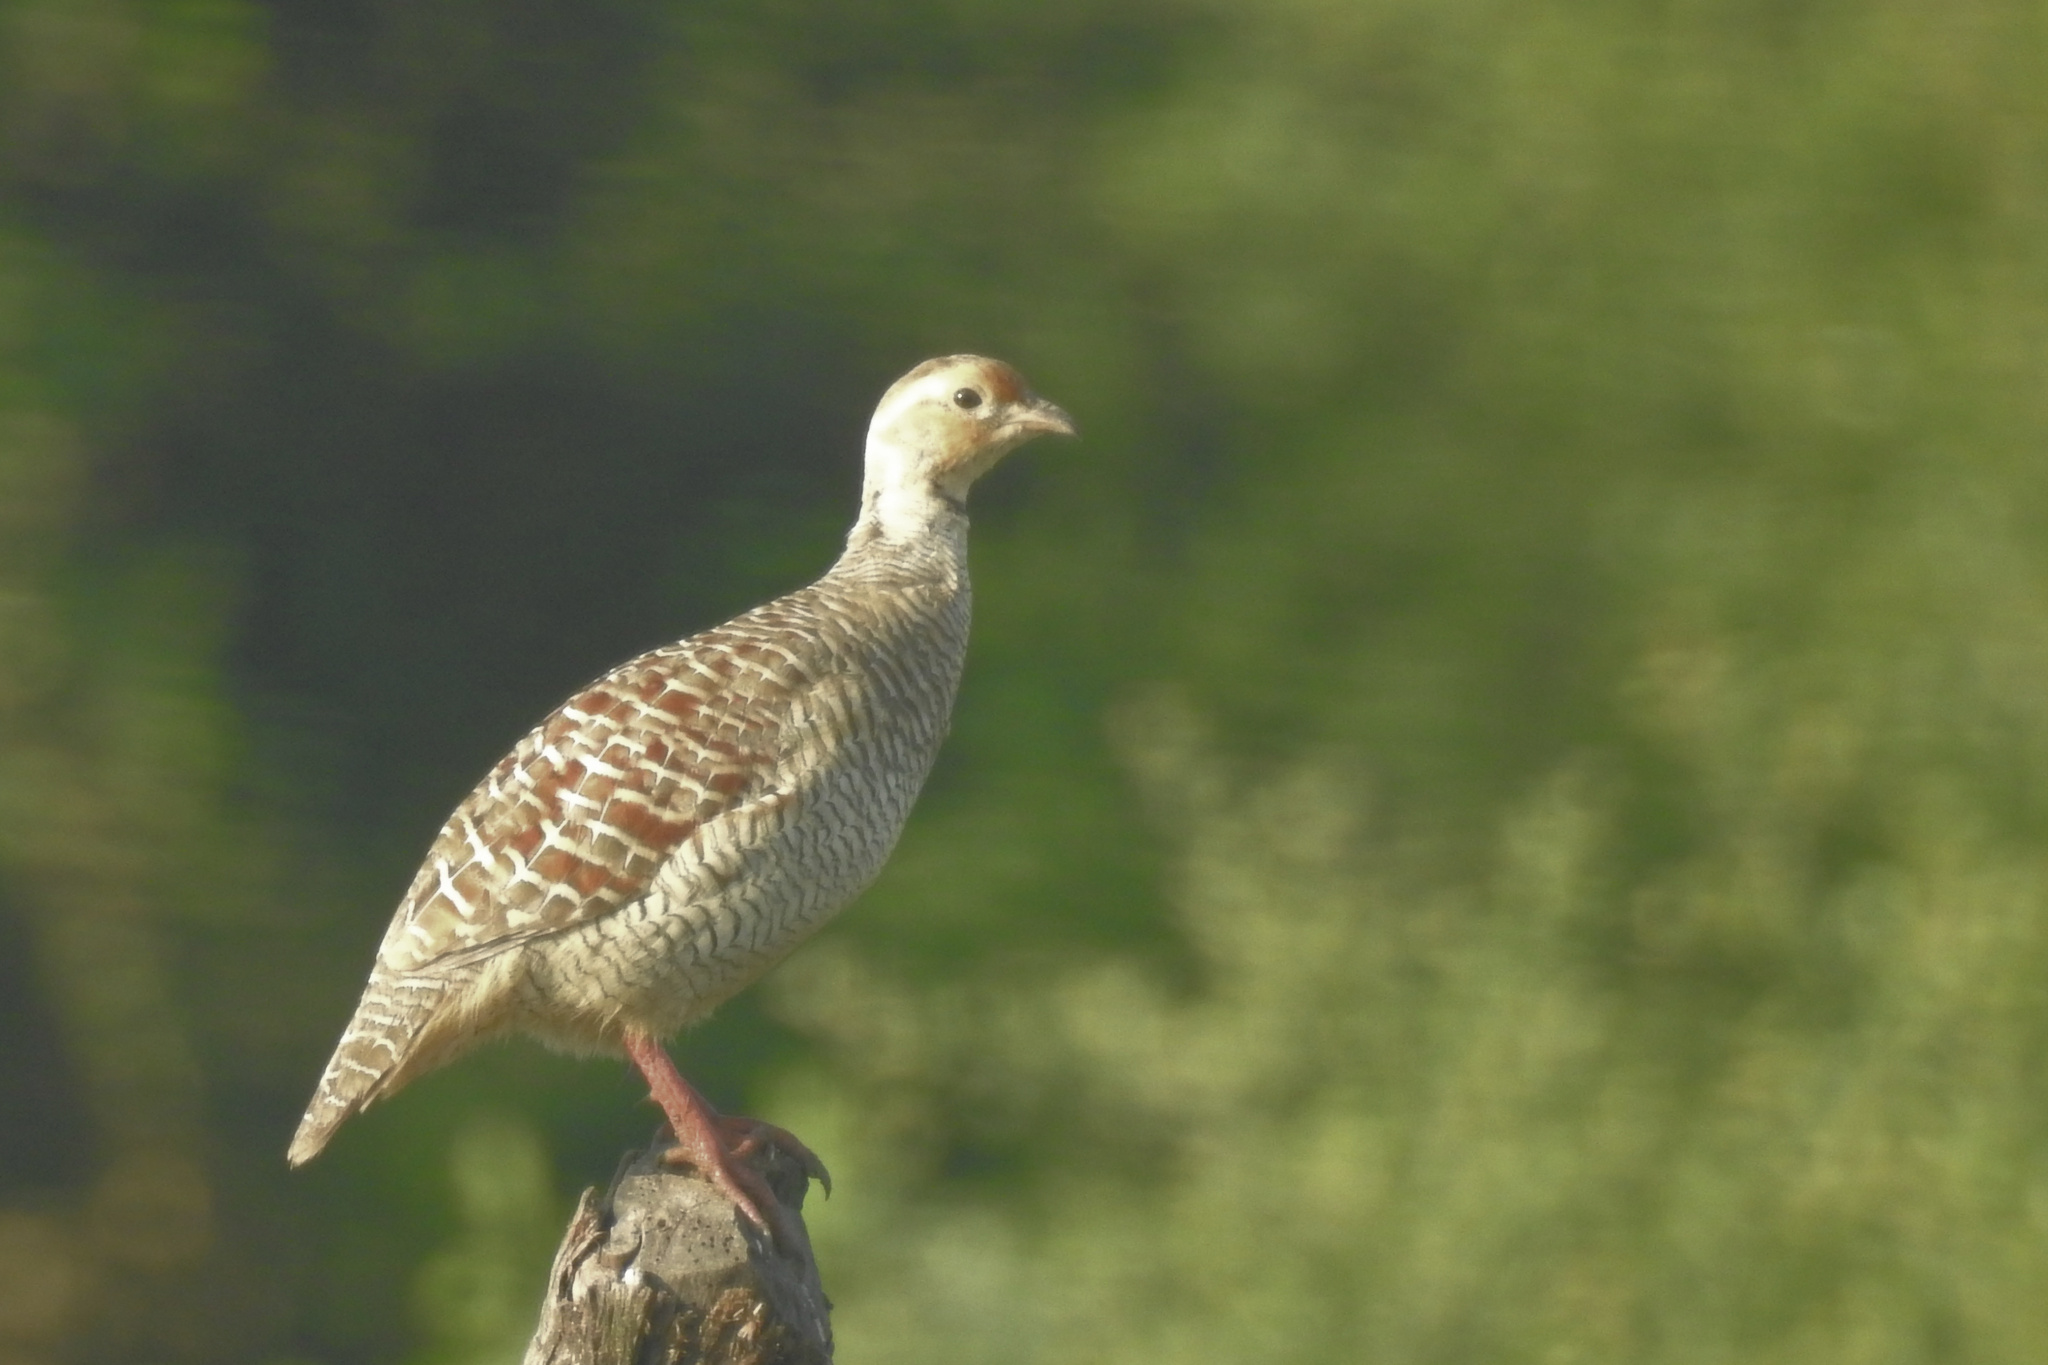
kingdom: Animalia
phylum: Chordata
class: Aves
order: Galliformes
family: Phasianidae
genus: Ortygornis
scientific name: Ortygornis pondicerianus
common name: Grey francolin
